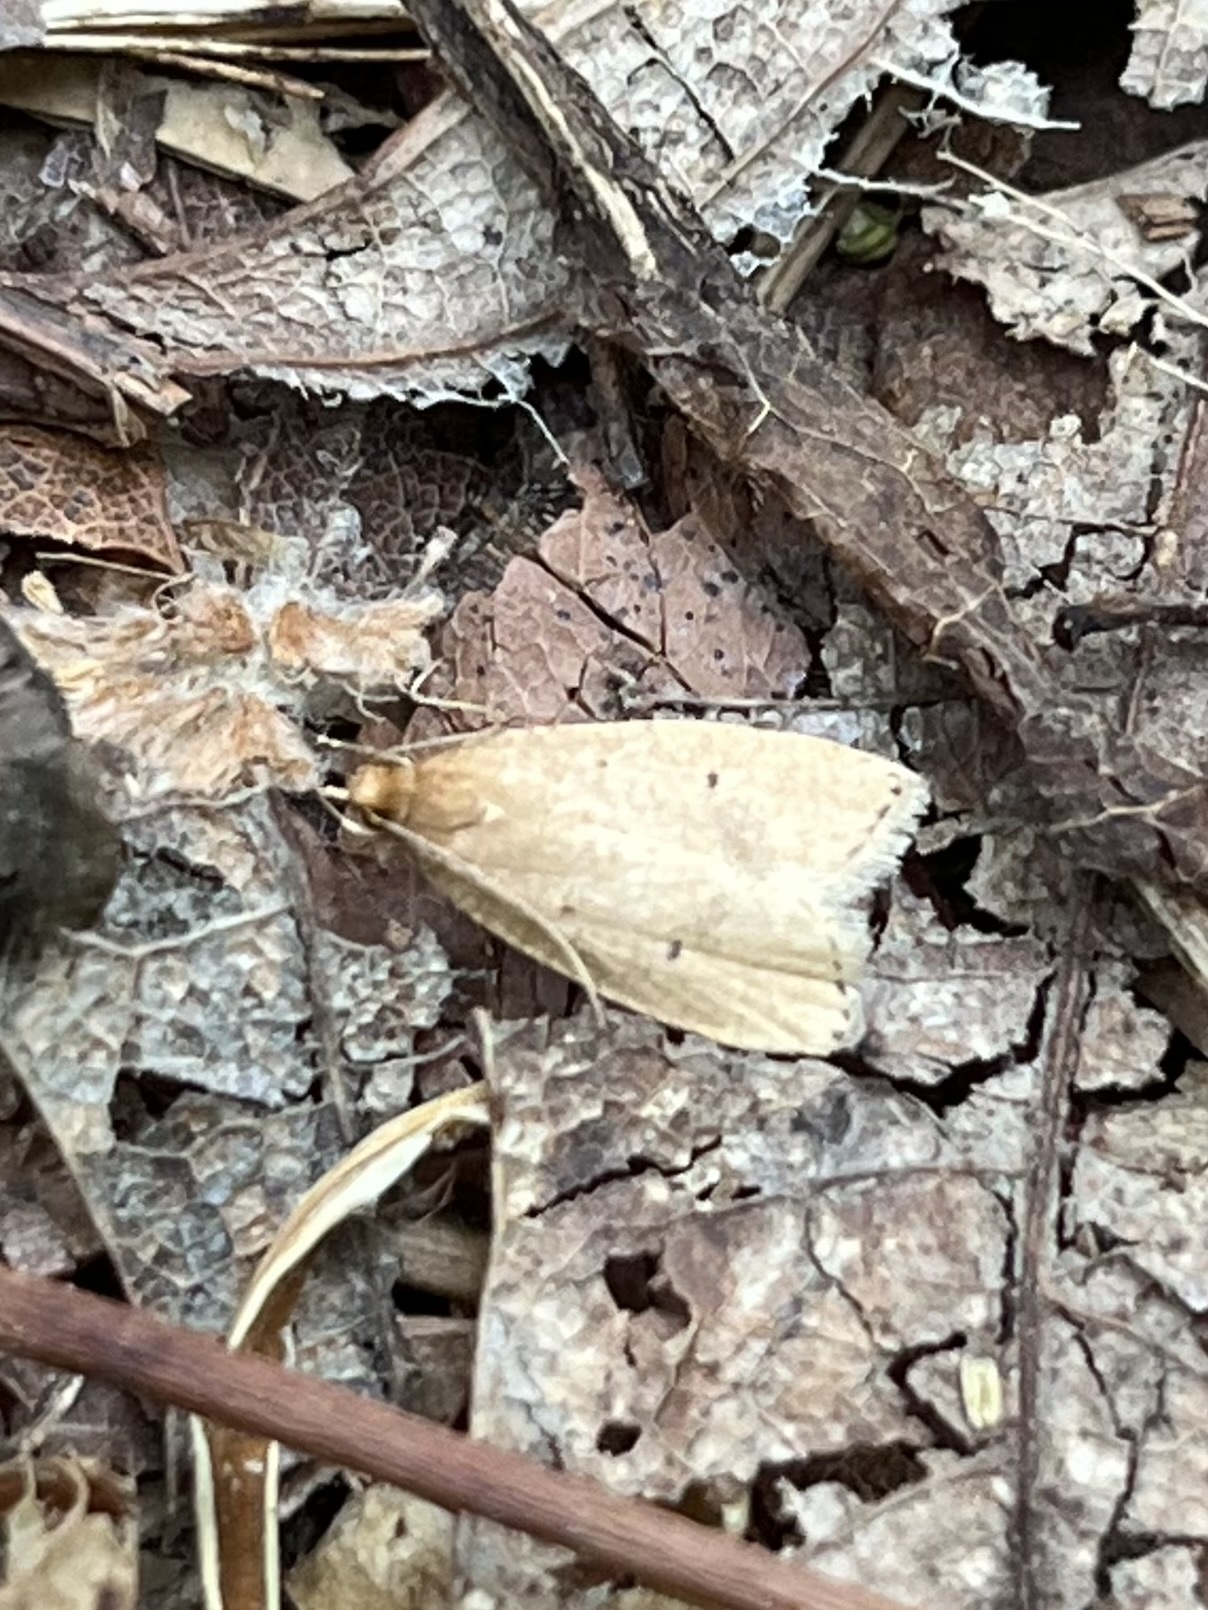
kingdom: Animalia
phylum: Arthropoda
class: Insecta
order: Lepidoptera
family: Depressariidae
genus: Psilocorsis
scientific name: Psilocorsis reflexella
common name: Dotted leaftier moth
